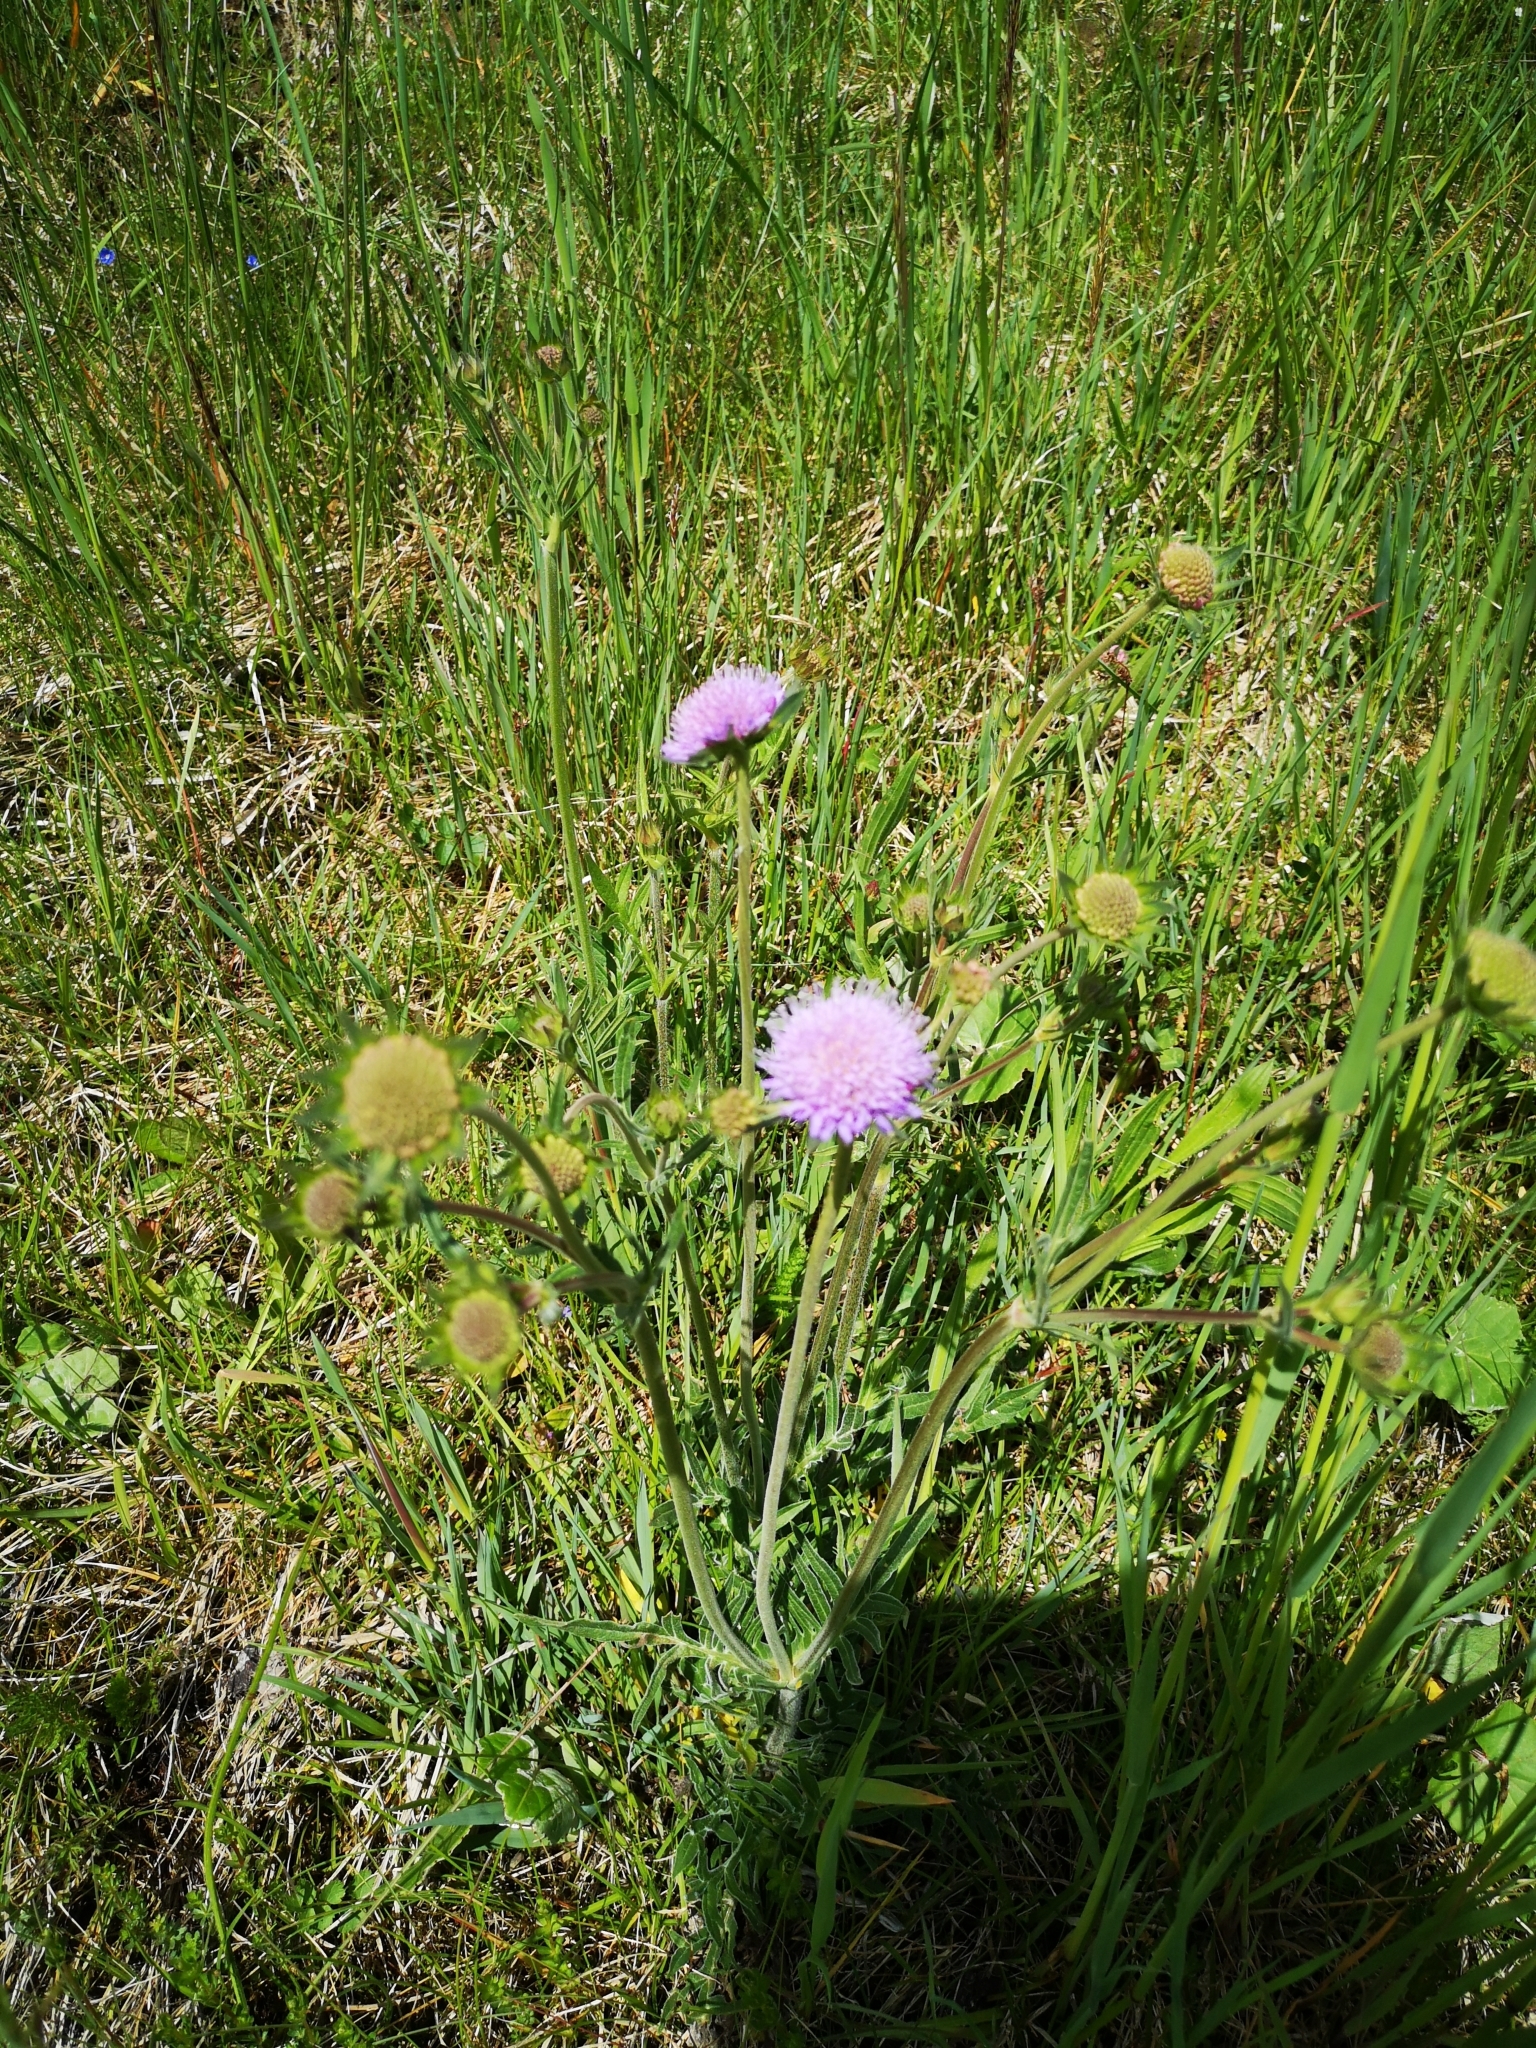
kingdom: Plantae
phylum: Tracheophyta
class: Magnoliopsida
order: Dipsacales
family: Caprifoliaceae
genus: Knautia
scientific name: Knautia arvensis
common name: Field scabiosa
